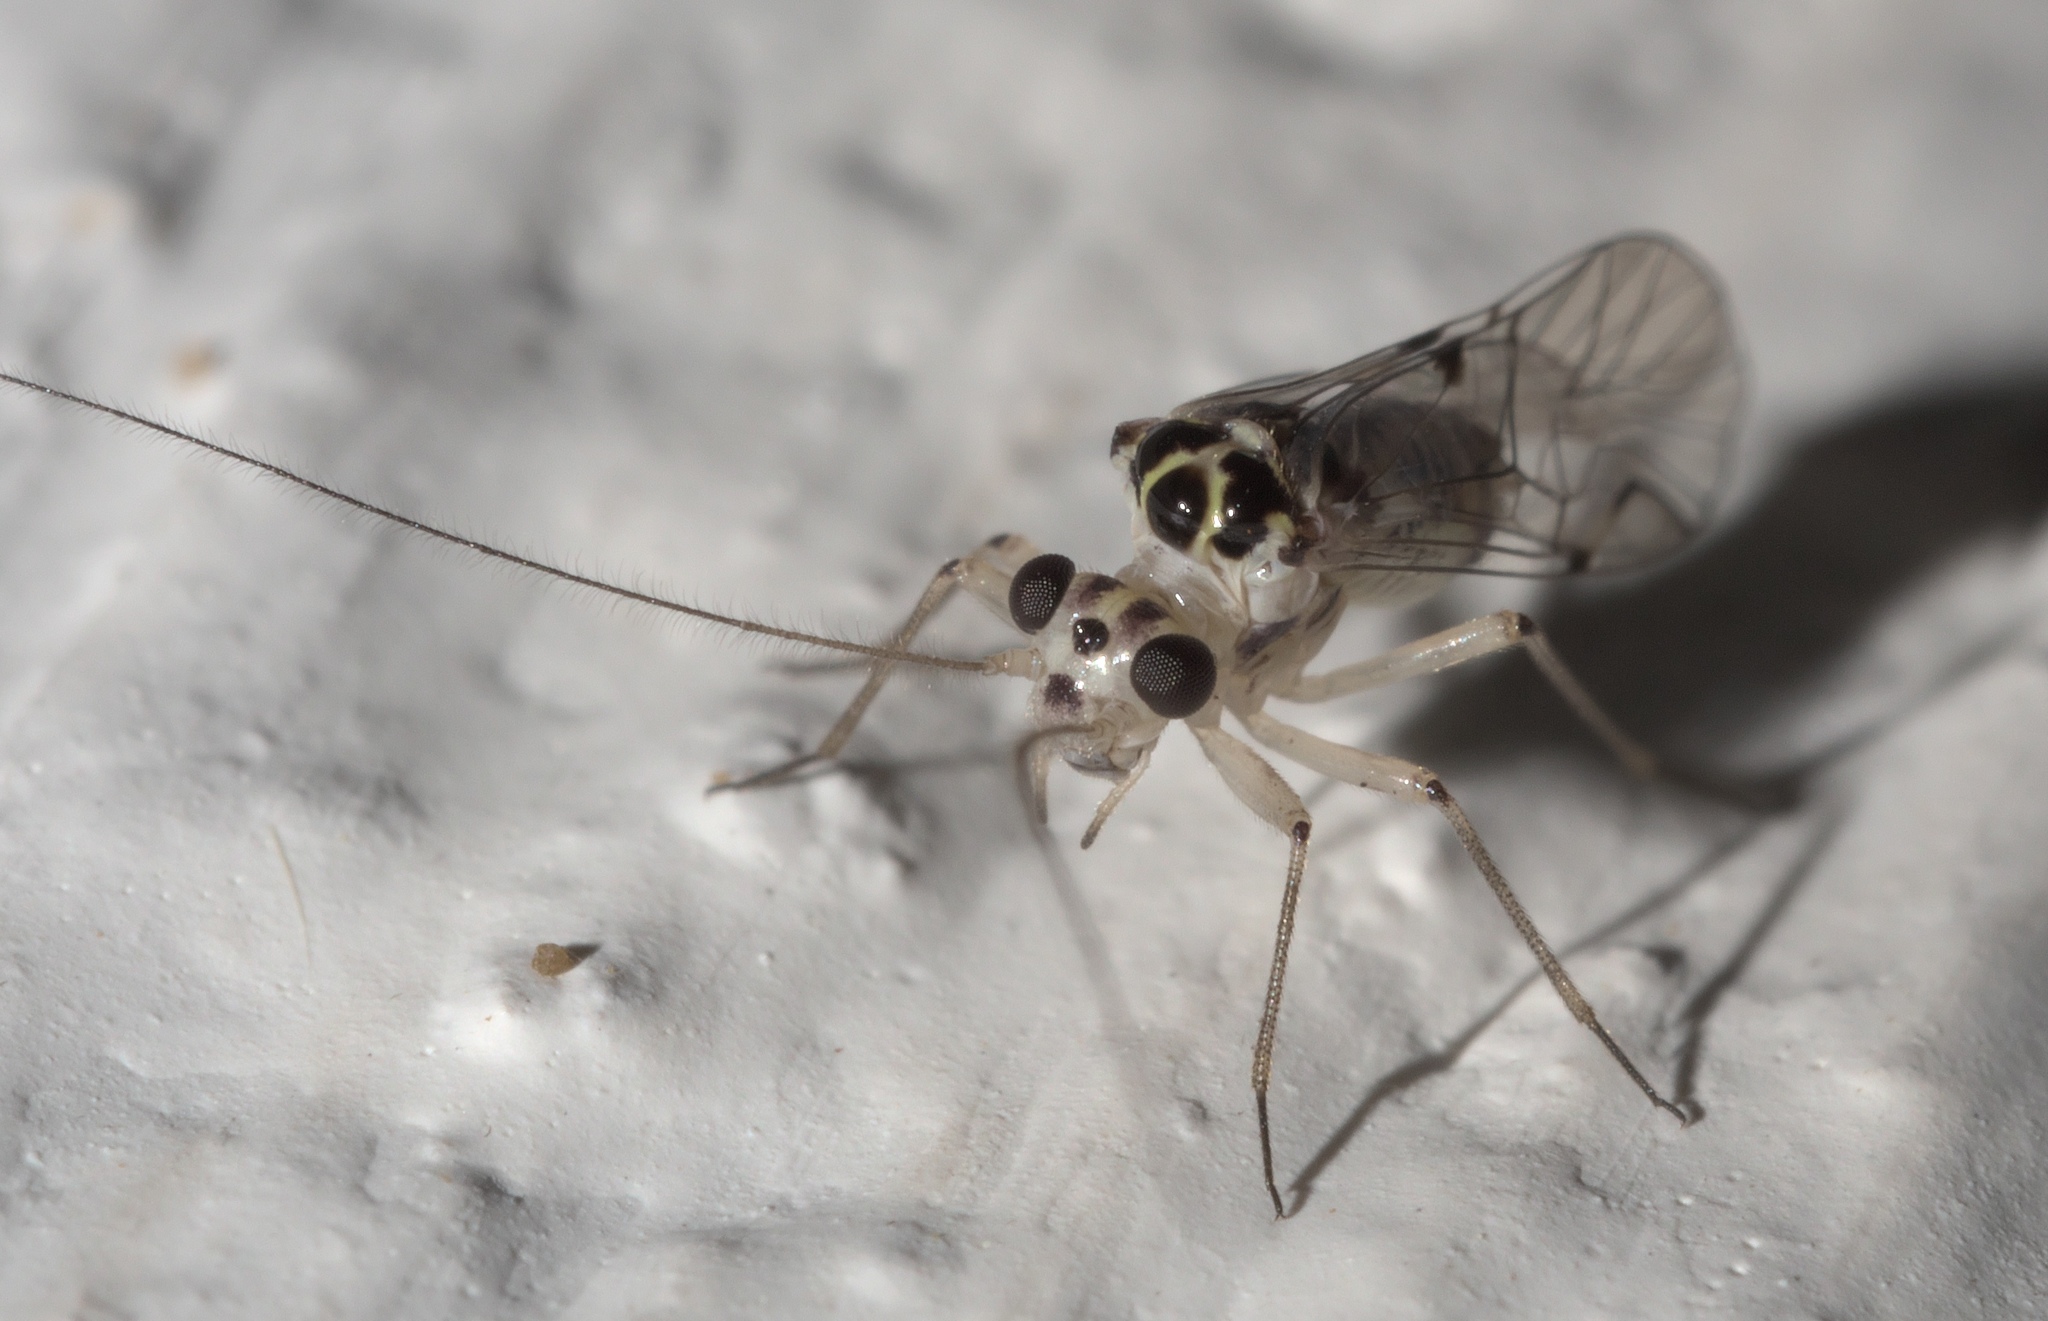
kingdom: Animalia
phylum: Arthropoda
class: Insecta
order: Psocodea
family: Psocidae
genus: Metylophorus
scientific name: Metylophorus purus
